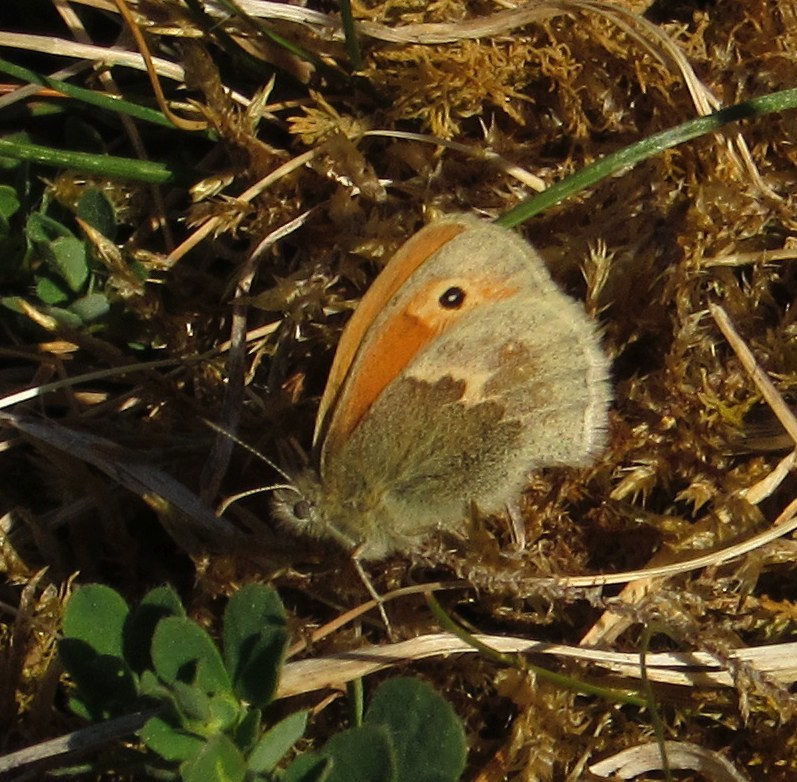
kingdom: Animalia
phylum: Arthropoda
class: Insecta
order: Lepidoptera
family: Nymphalidae
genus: Coenonympha
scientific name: Coenonympha pamphilus
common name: Small heath
